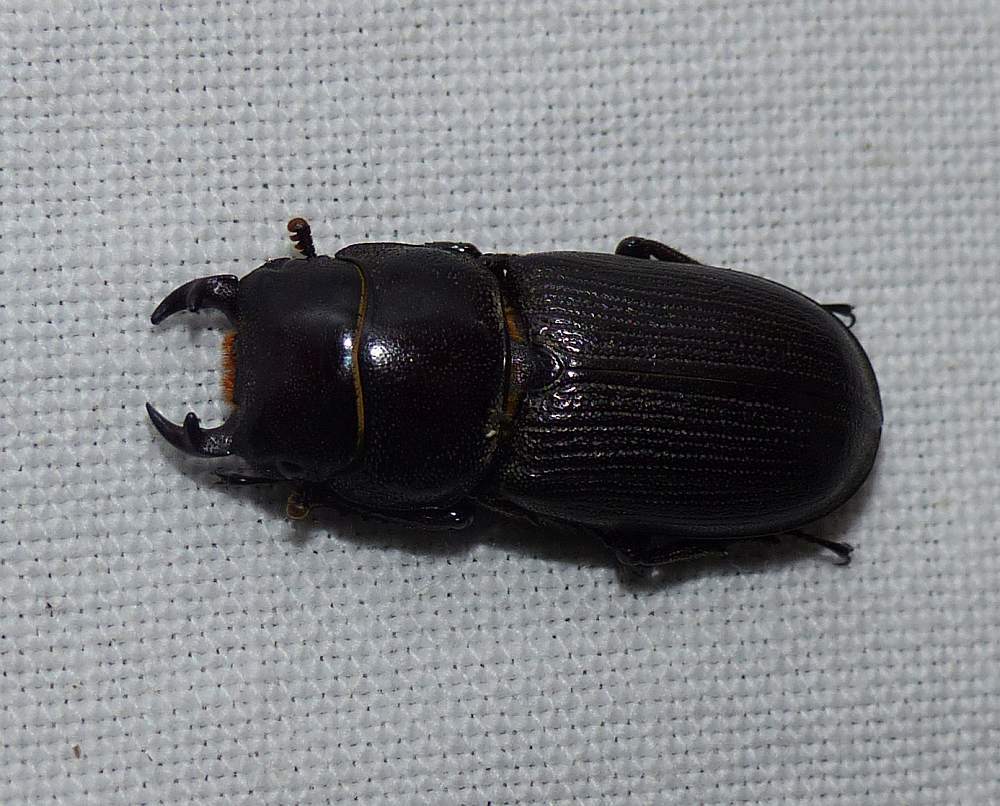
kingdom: Animalia
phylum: Arthropoda
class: Insecta
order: Coleoptera
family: Lucanidae
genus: Dorcus
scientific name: Dorcus parallelus
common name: Antelope beetle
